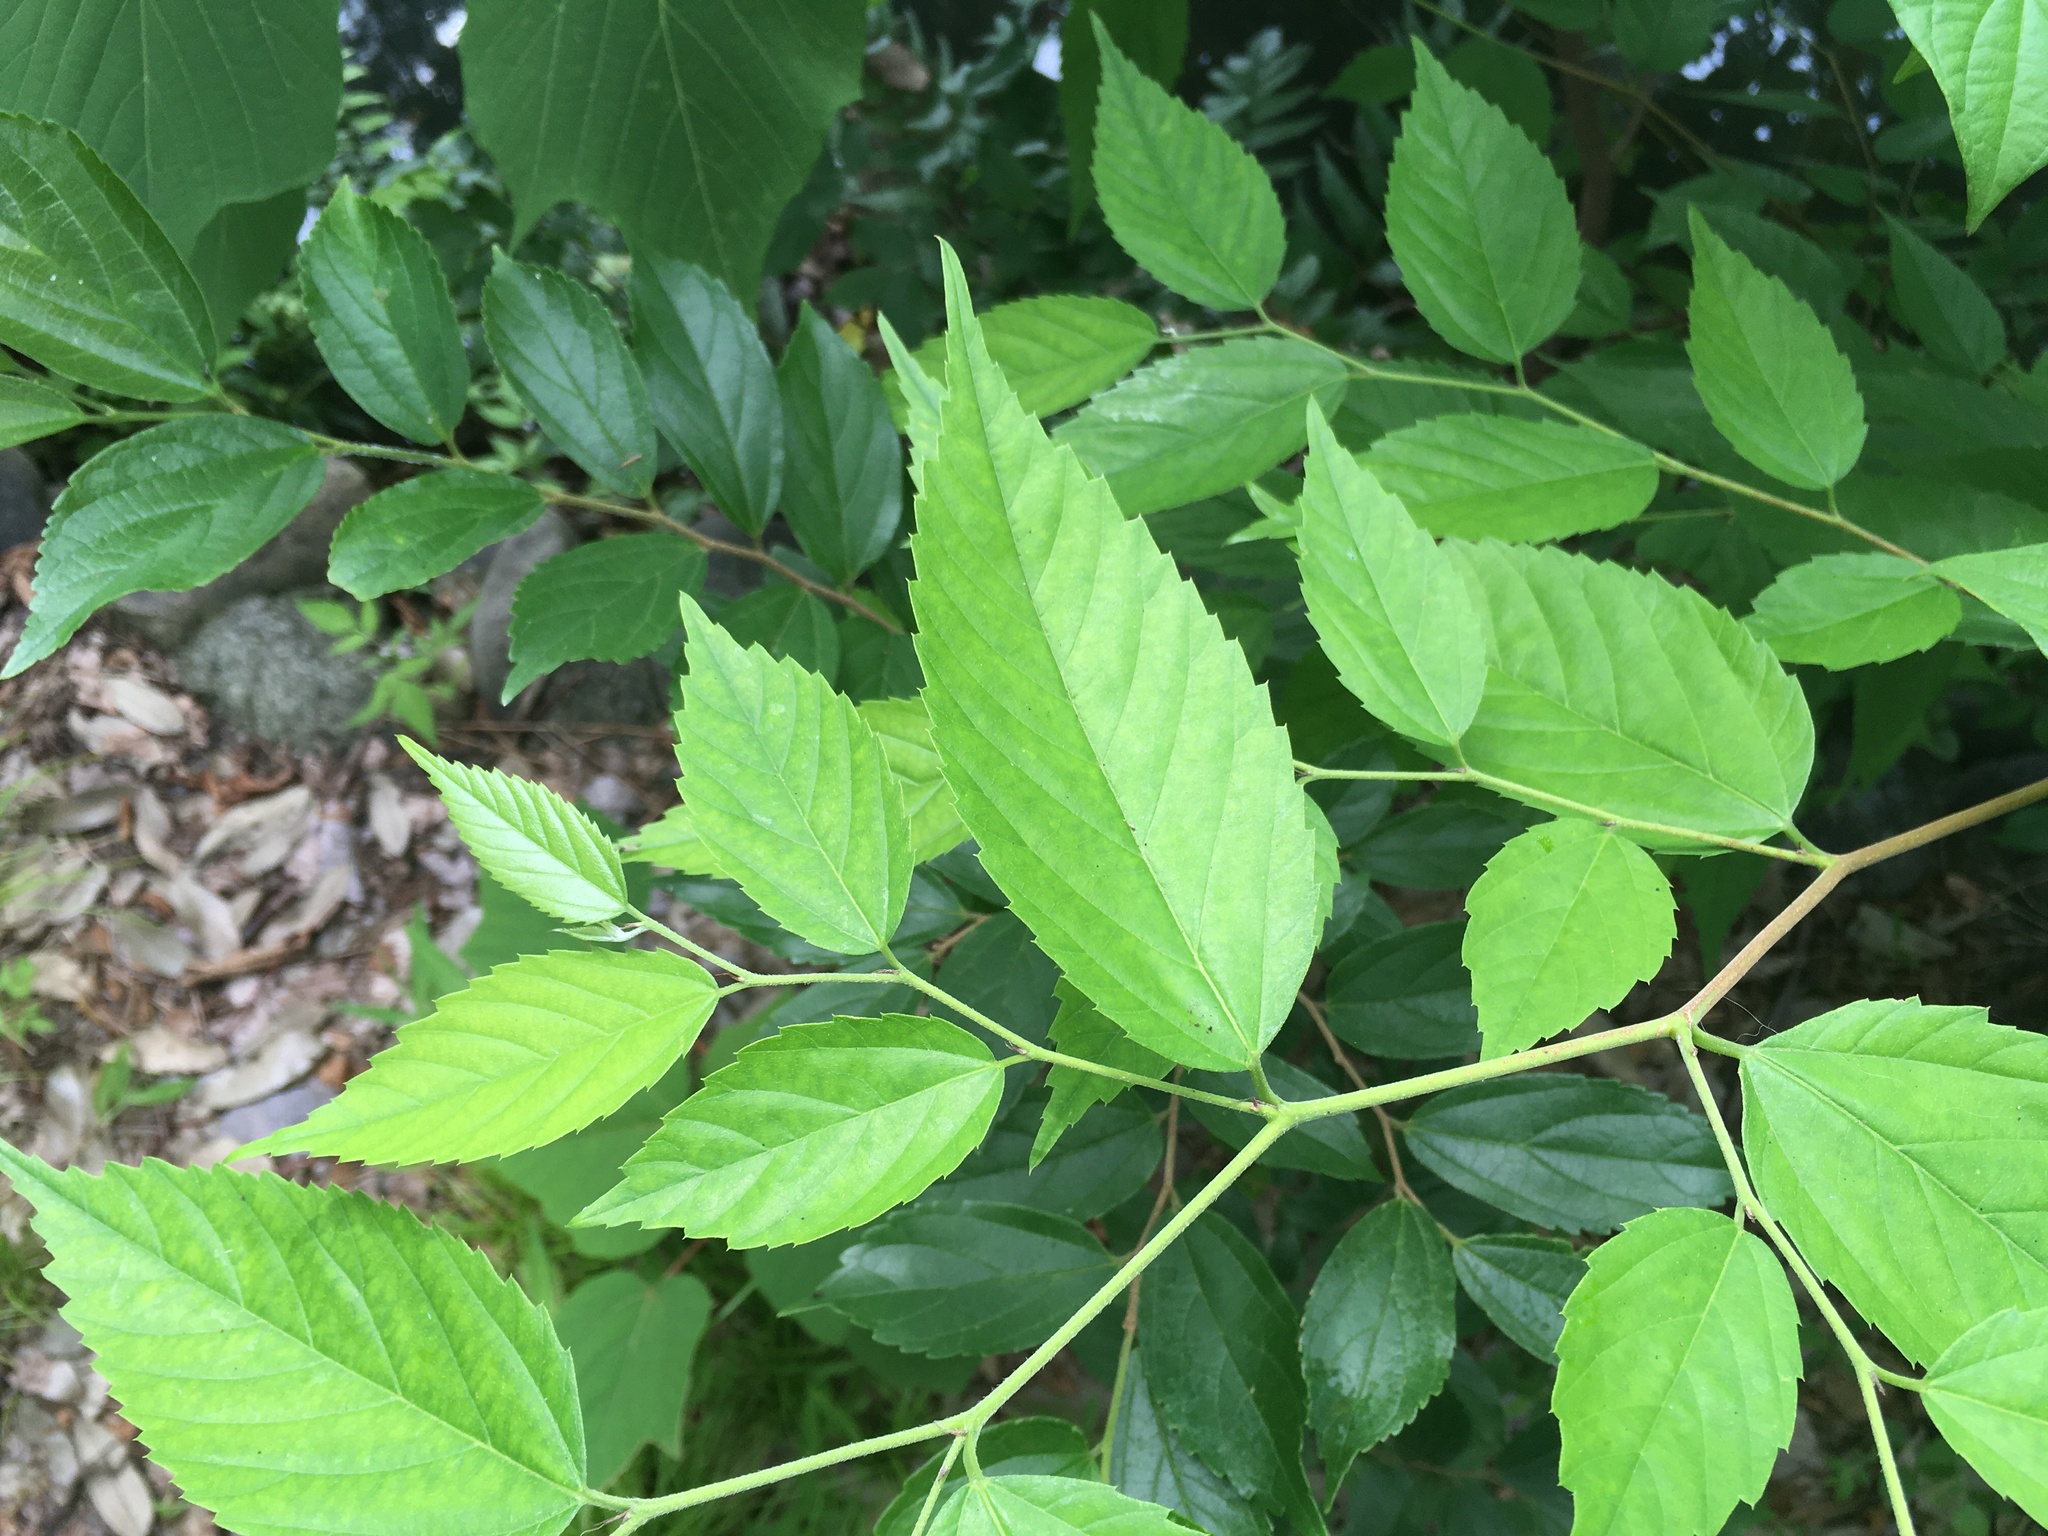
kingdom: Plantae
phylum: Tracheophyta
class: Magnoliopsida
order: Rosales
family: Cannabaceae
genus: Aphananthe
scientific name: Aphananthe aspera
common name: Mukutree
